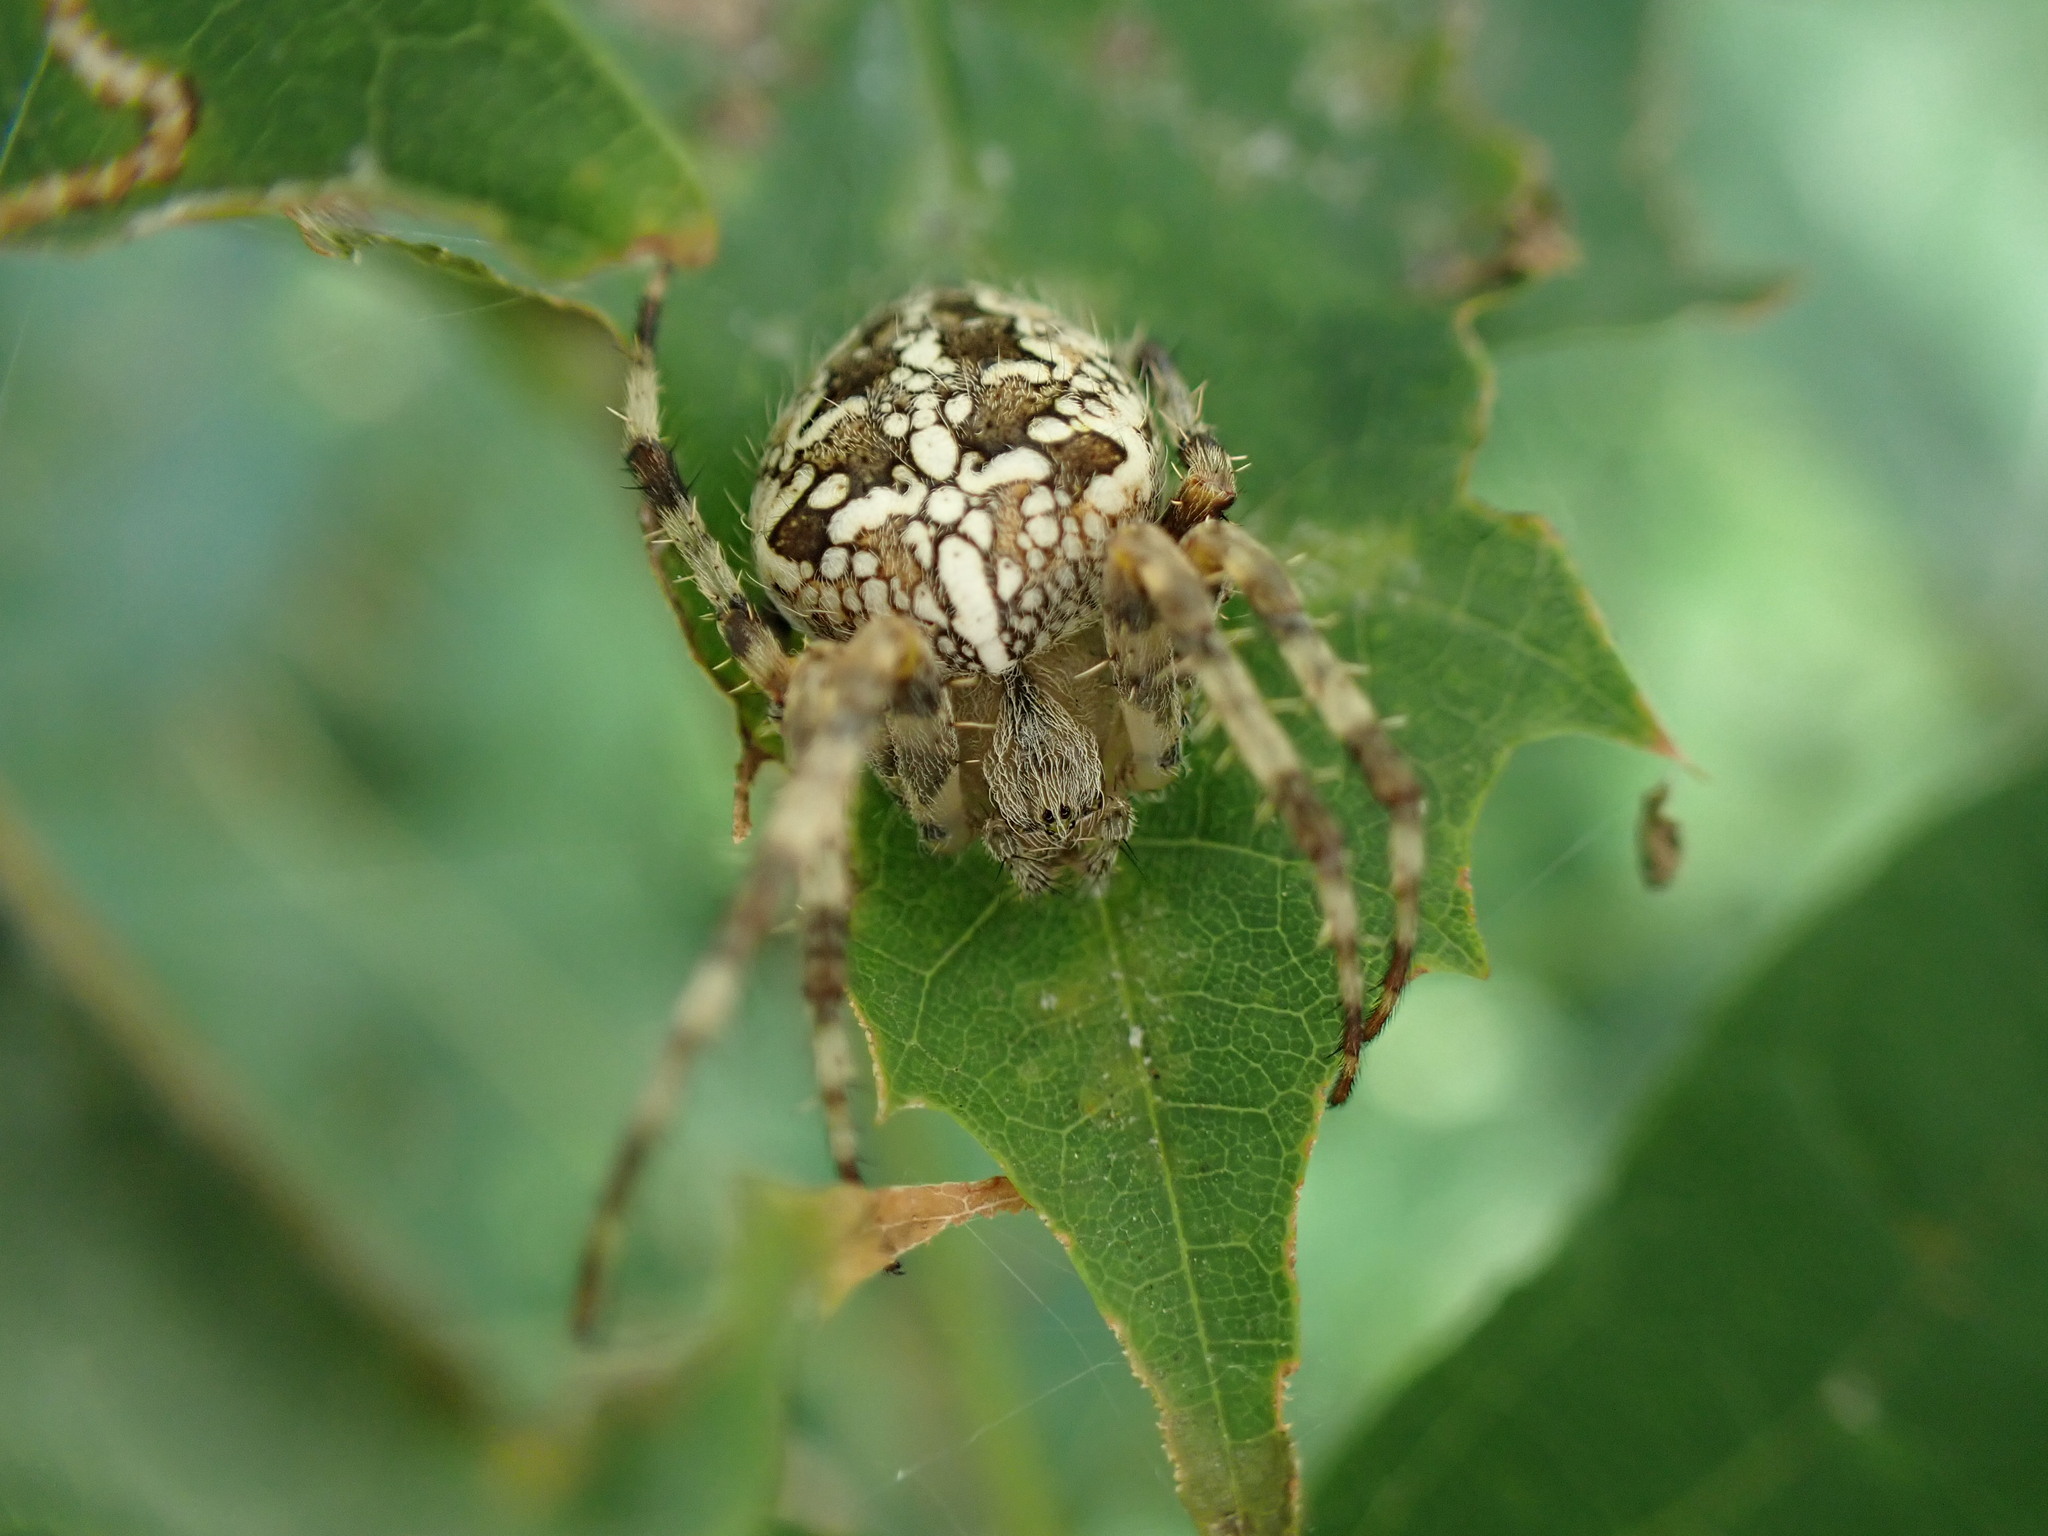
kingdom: Animalia
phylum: Arthropoda
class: Arachnida
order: Araneae
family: Araneidae
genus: Araneus
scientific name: Araneus diadematus
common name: Cross orbweaver
